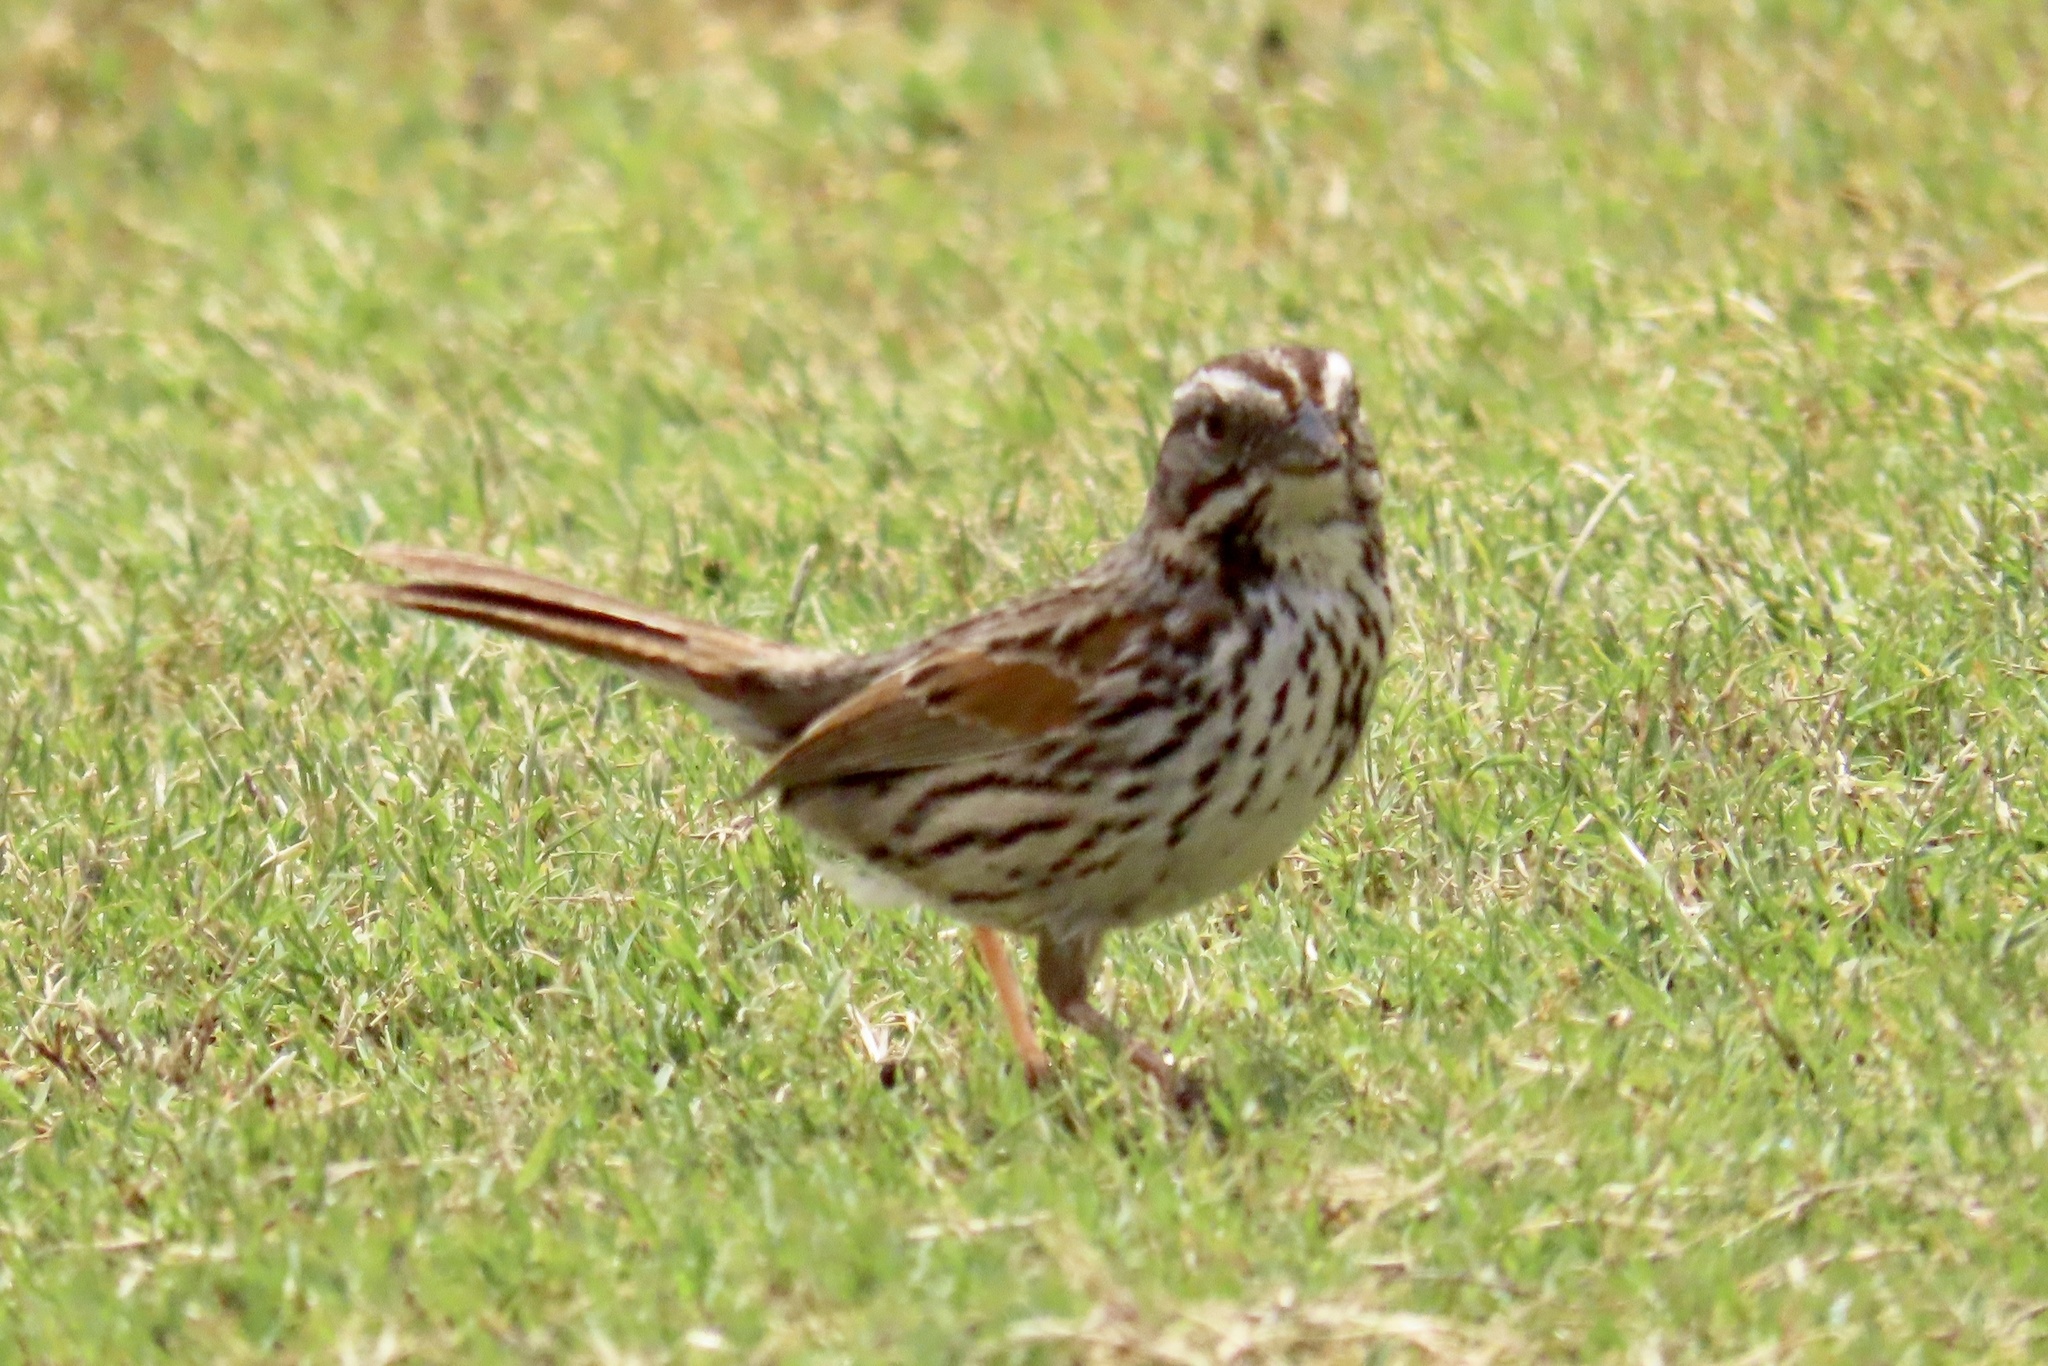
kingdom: Animalia
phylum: Chordata
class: Aves
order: Passeriformes
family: Passerellidae
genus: Melospiza
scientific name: Melospiza melodia
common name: Song sparrow
